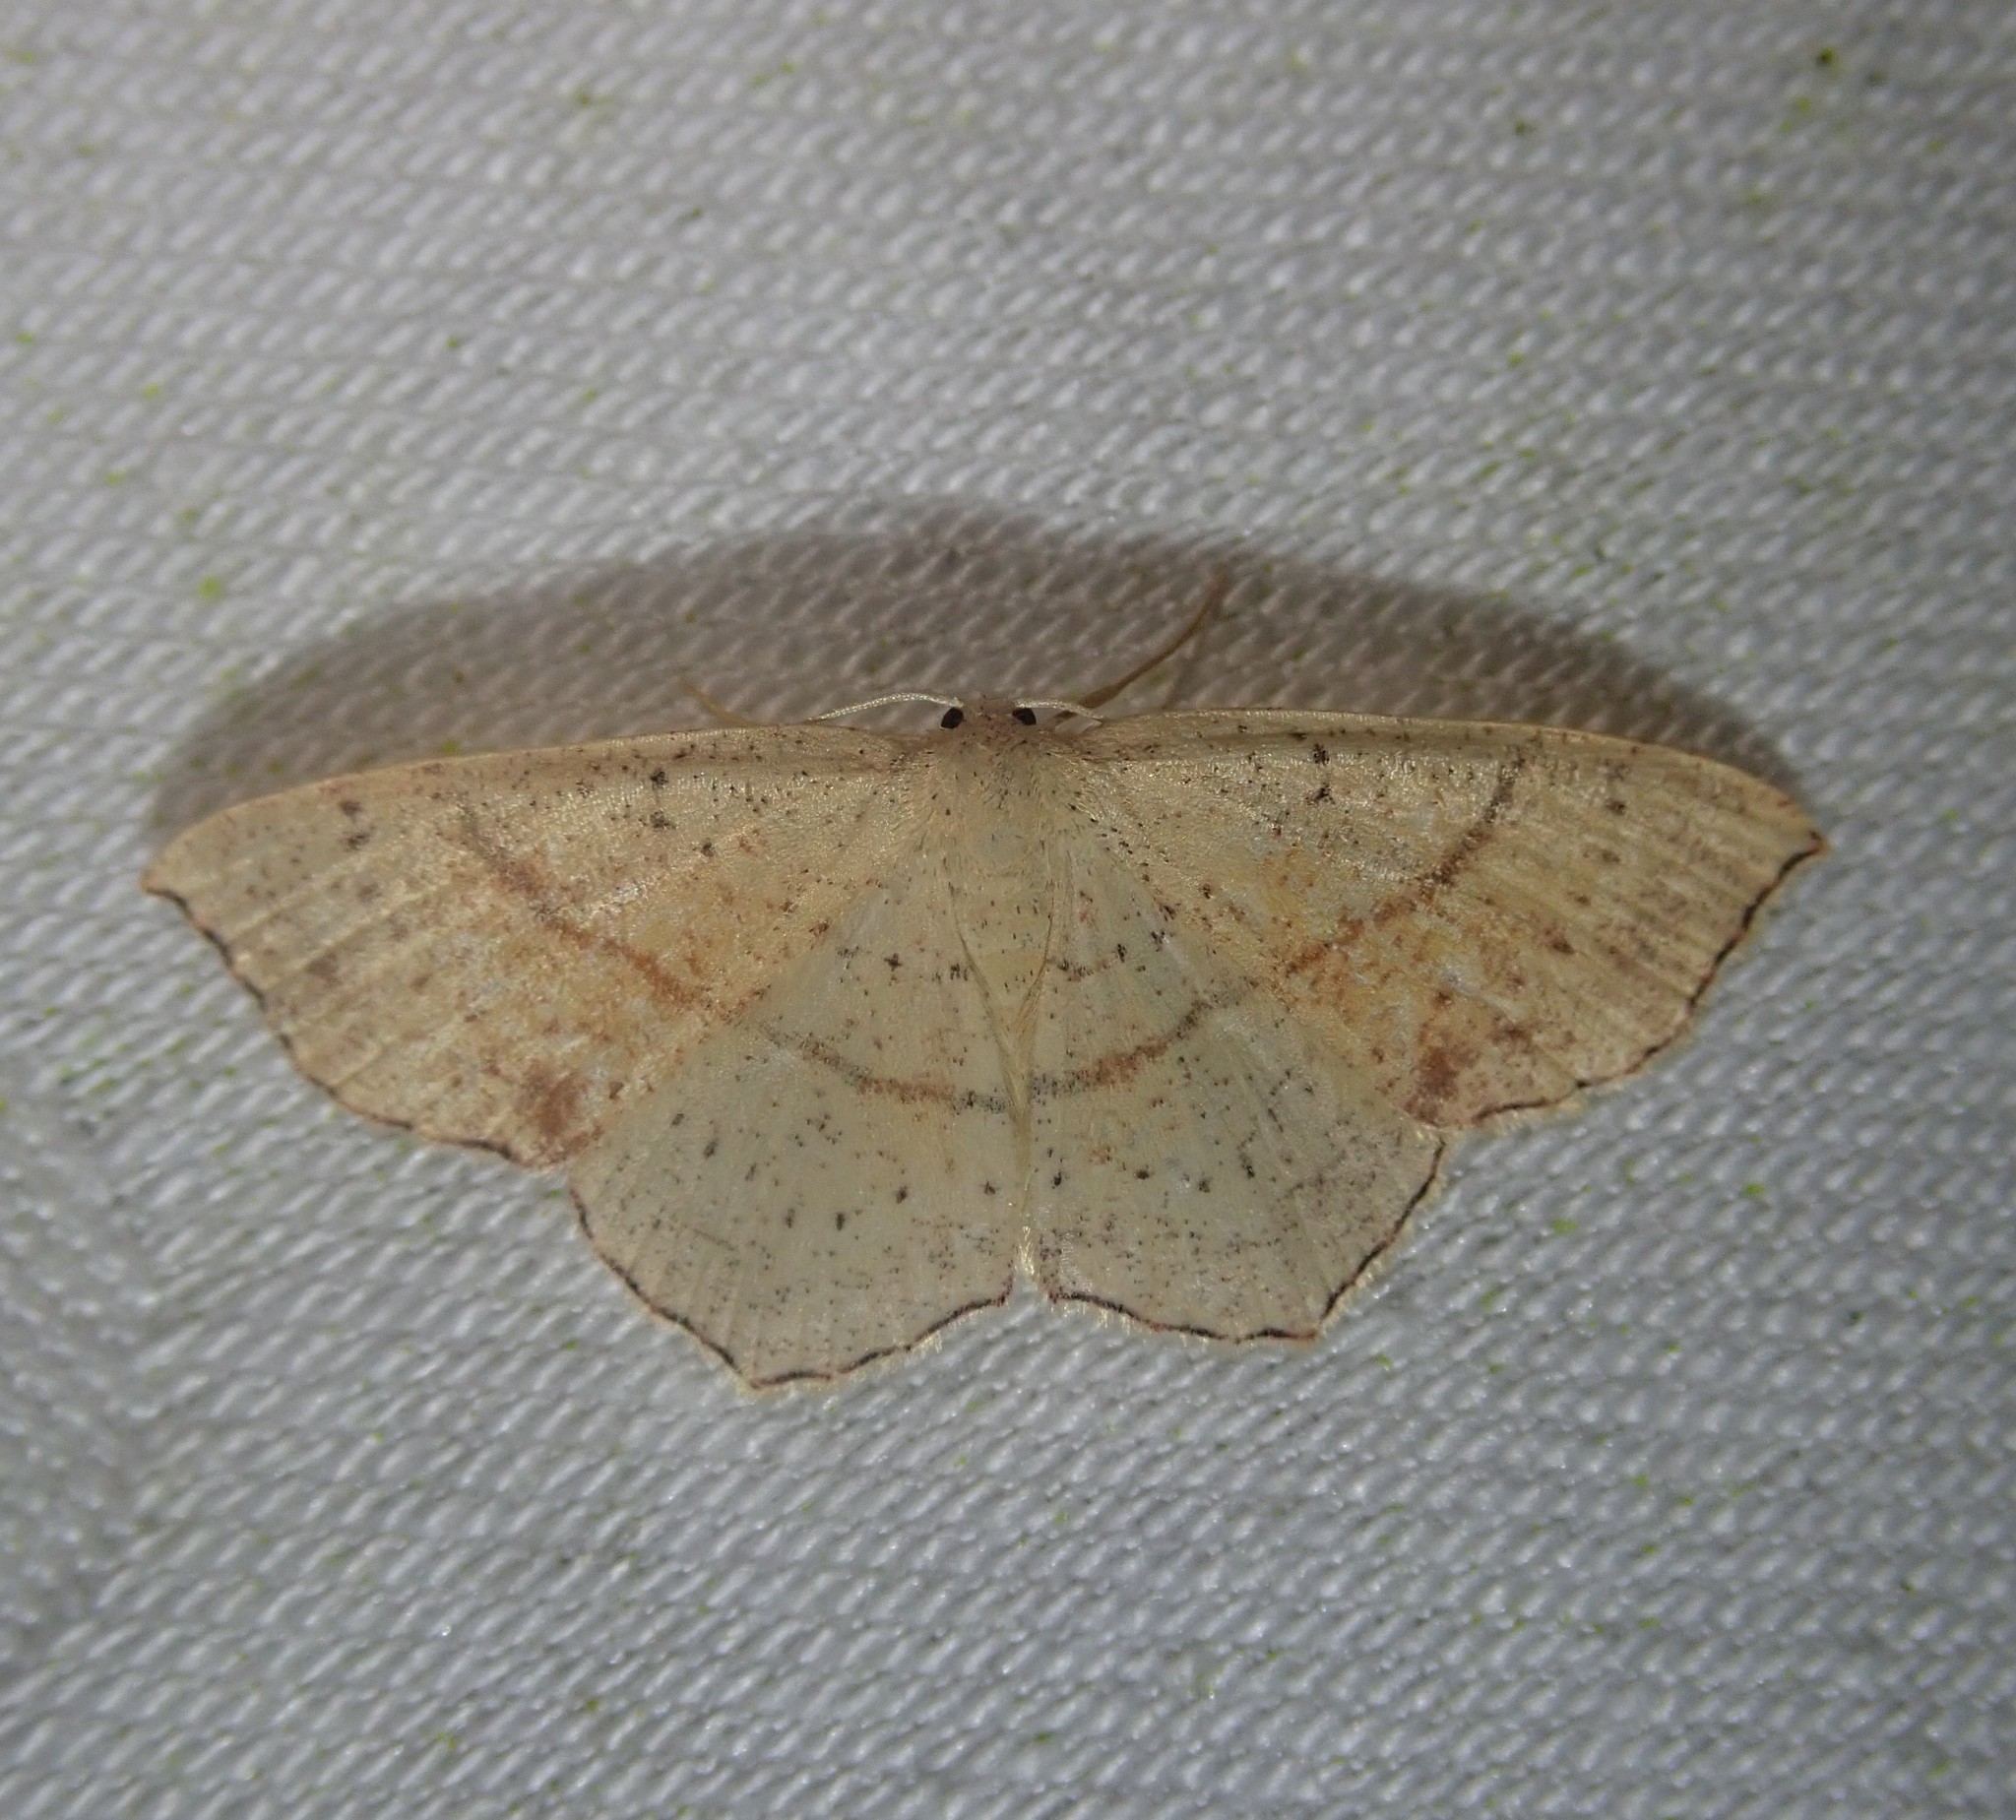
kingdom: Animalia
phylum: Arthropoda
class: Insecta
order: Lepidoptera
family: Geometridae
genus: Cyclophora
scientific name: Cyclophora punctaria
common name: Maiden's blush
